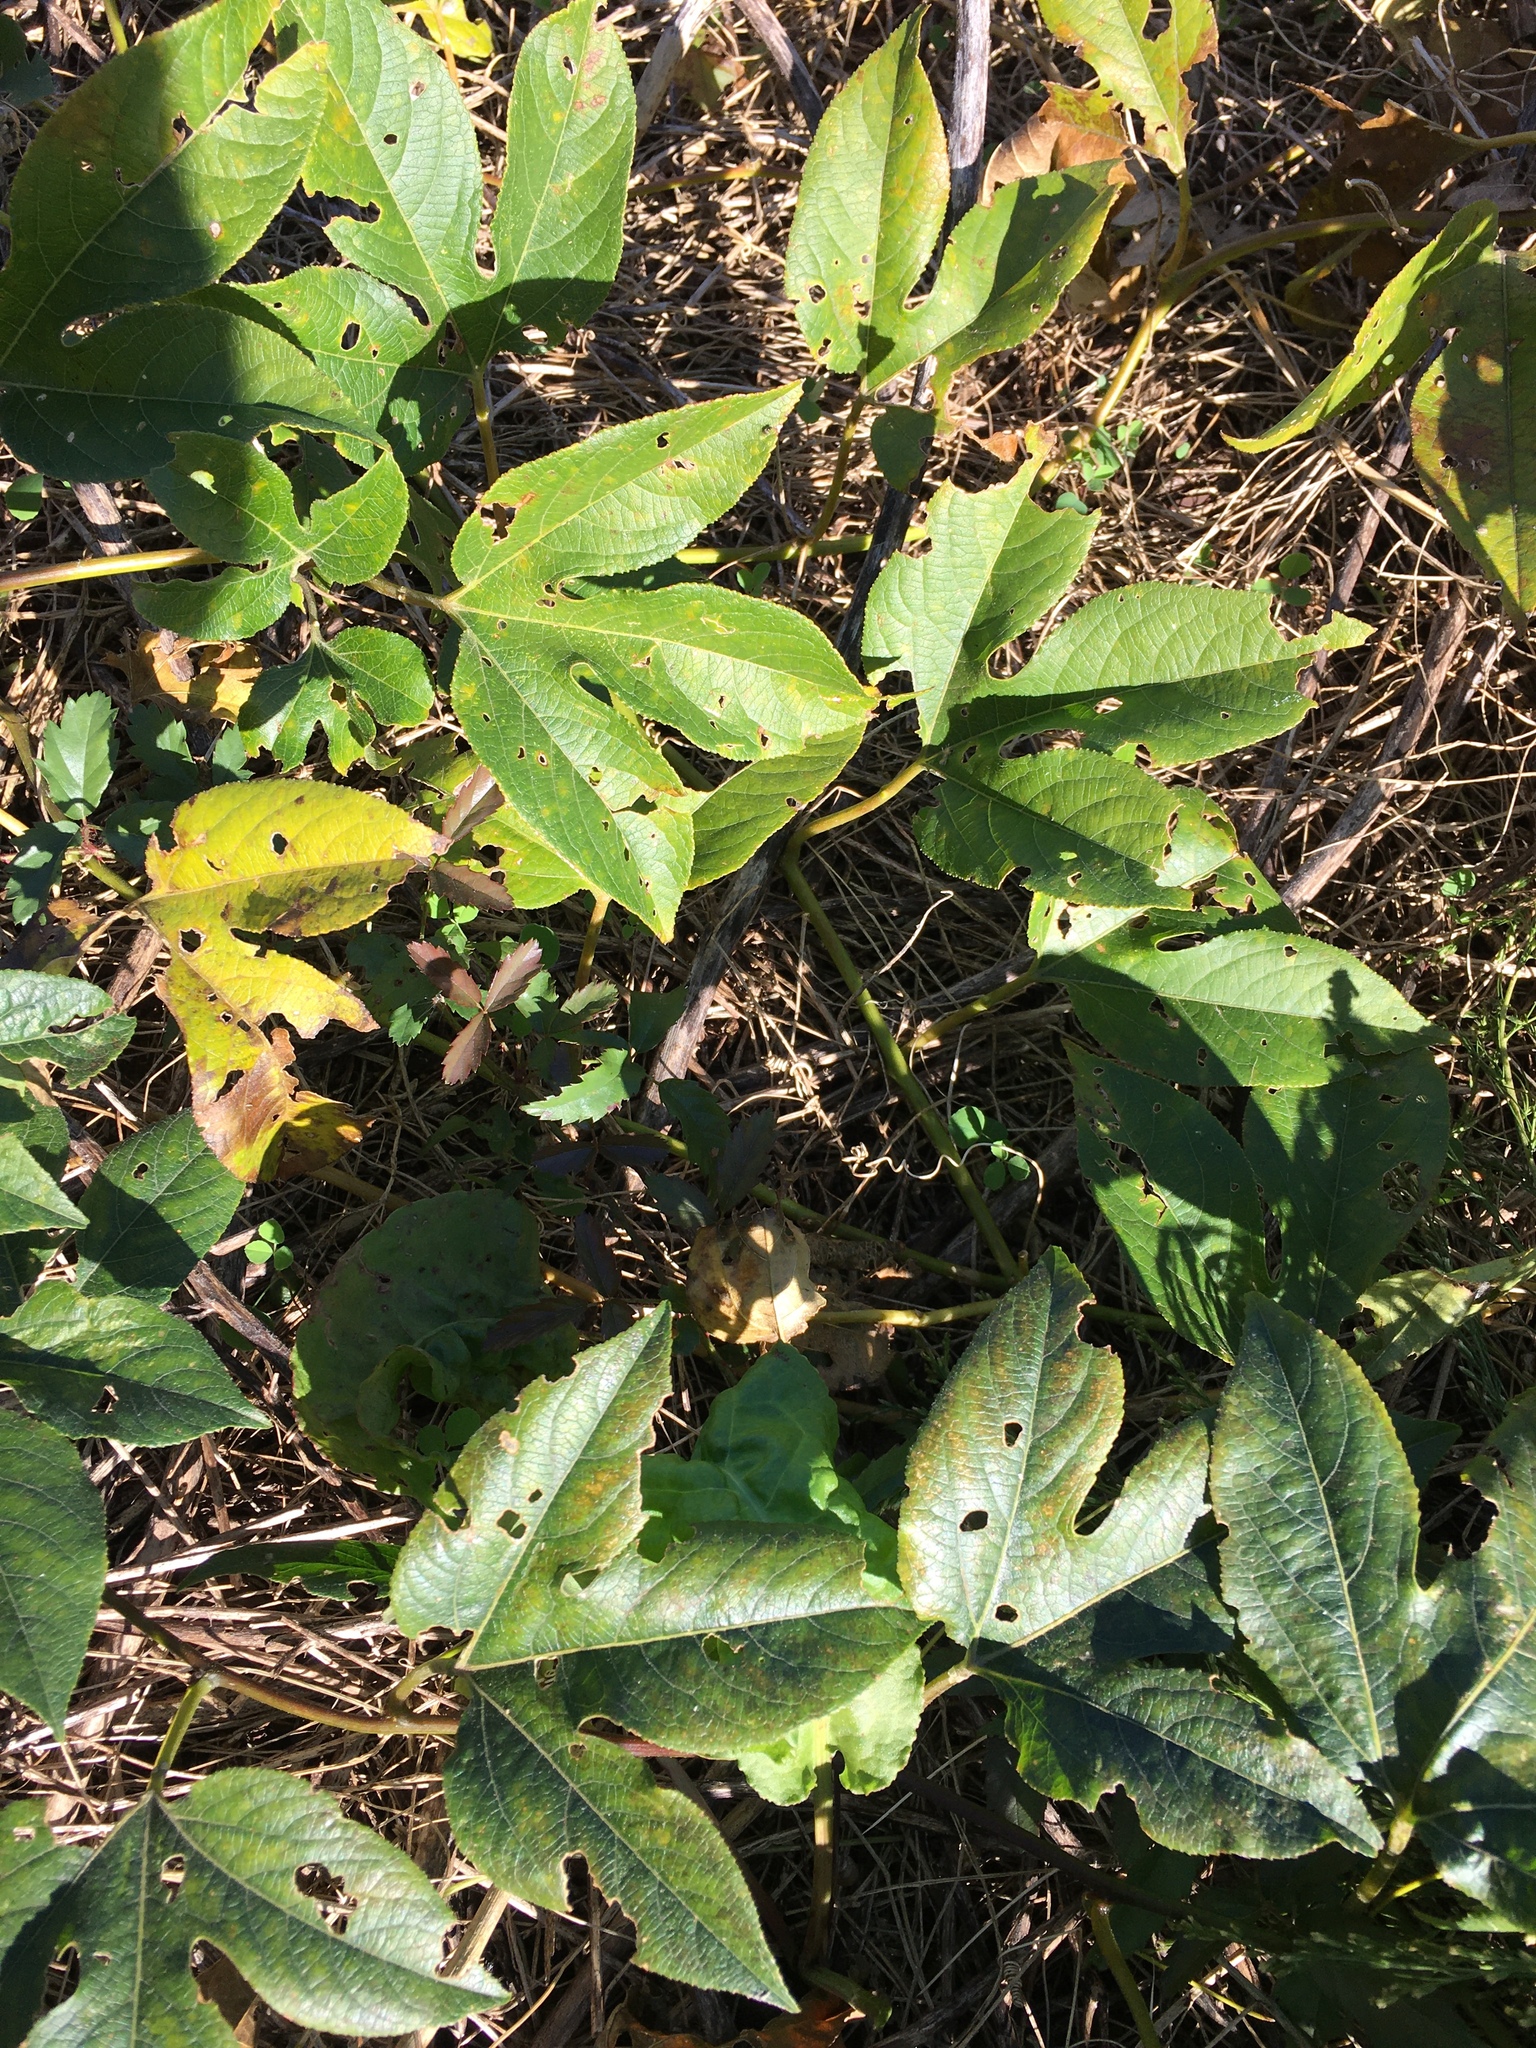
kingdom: Plantae
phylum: Tracheophyta
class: Magnoliopsida
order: Malpighiales
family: Passifloraceae
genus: Passiflora
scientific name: Passiflora incarnata
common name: Apricot-vine
